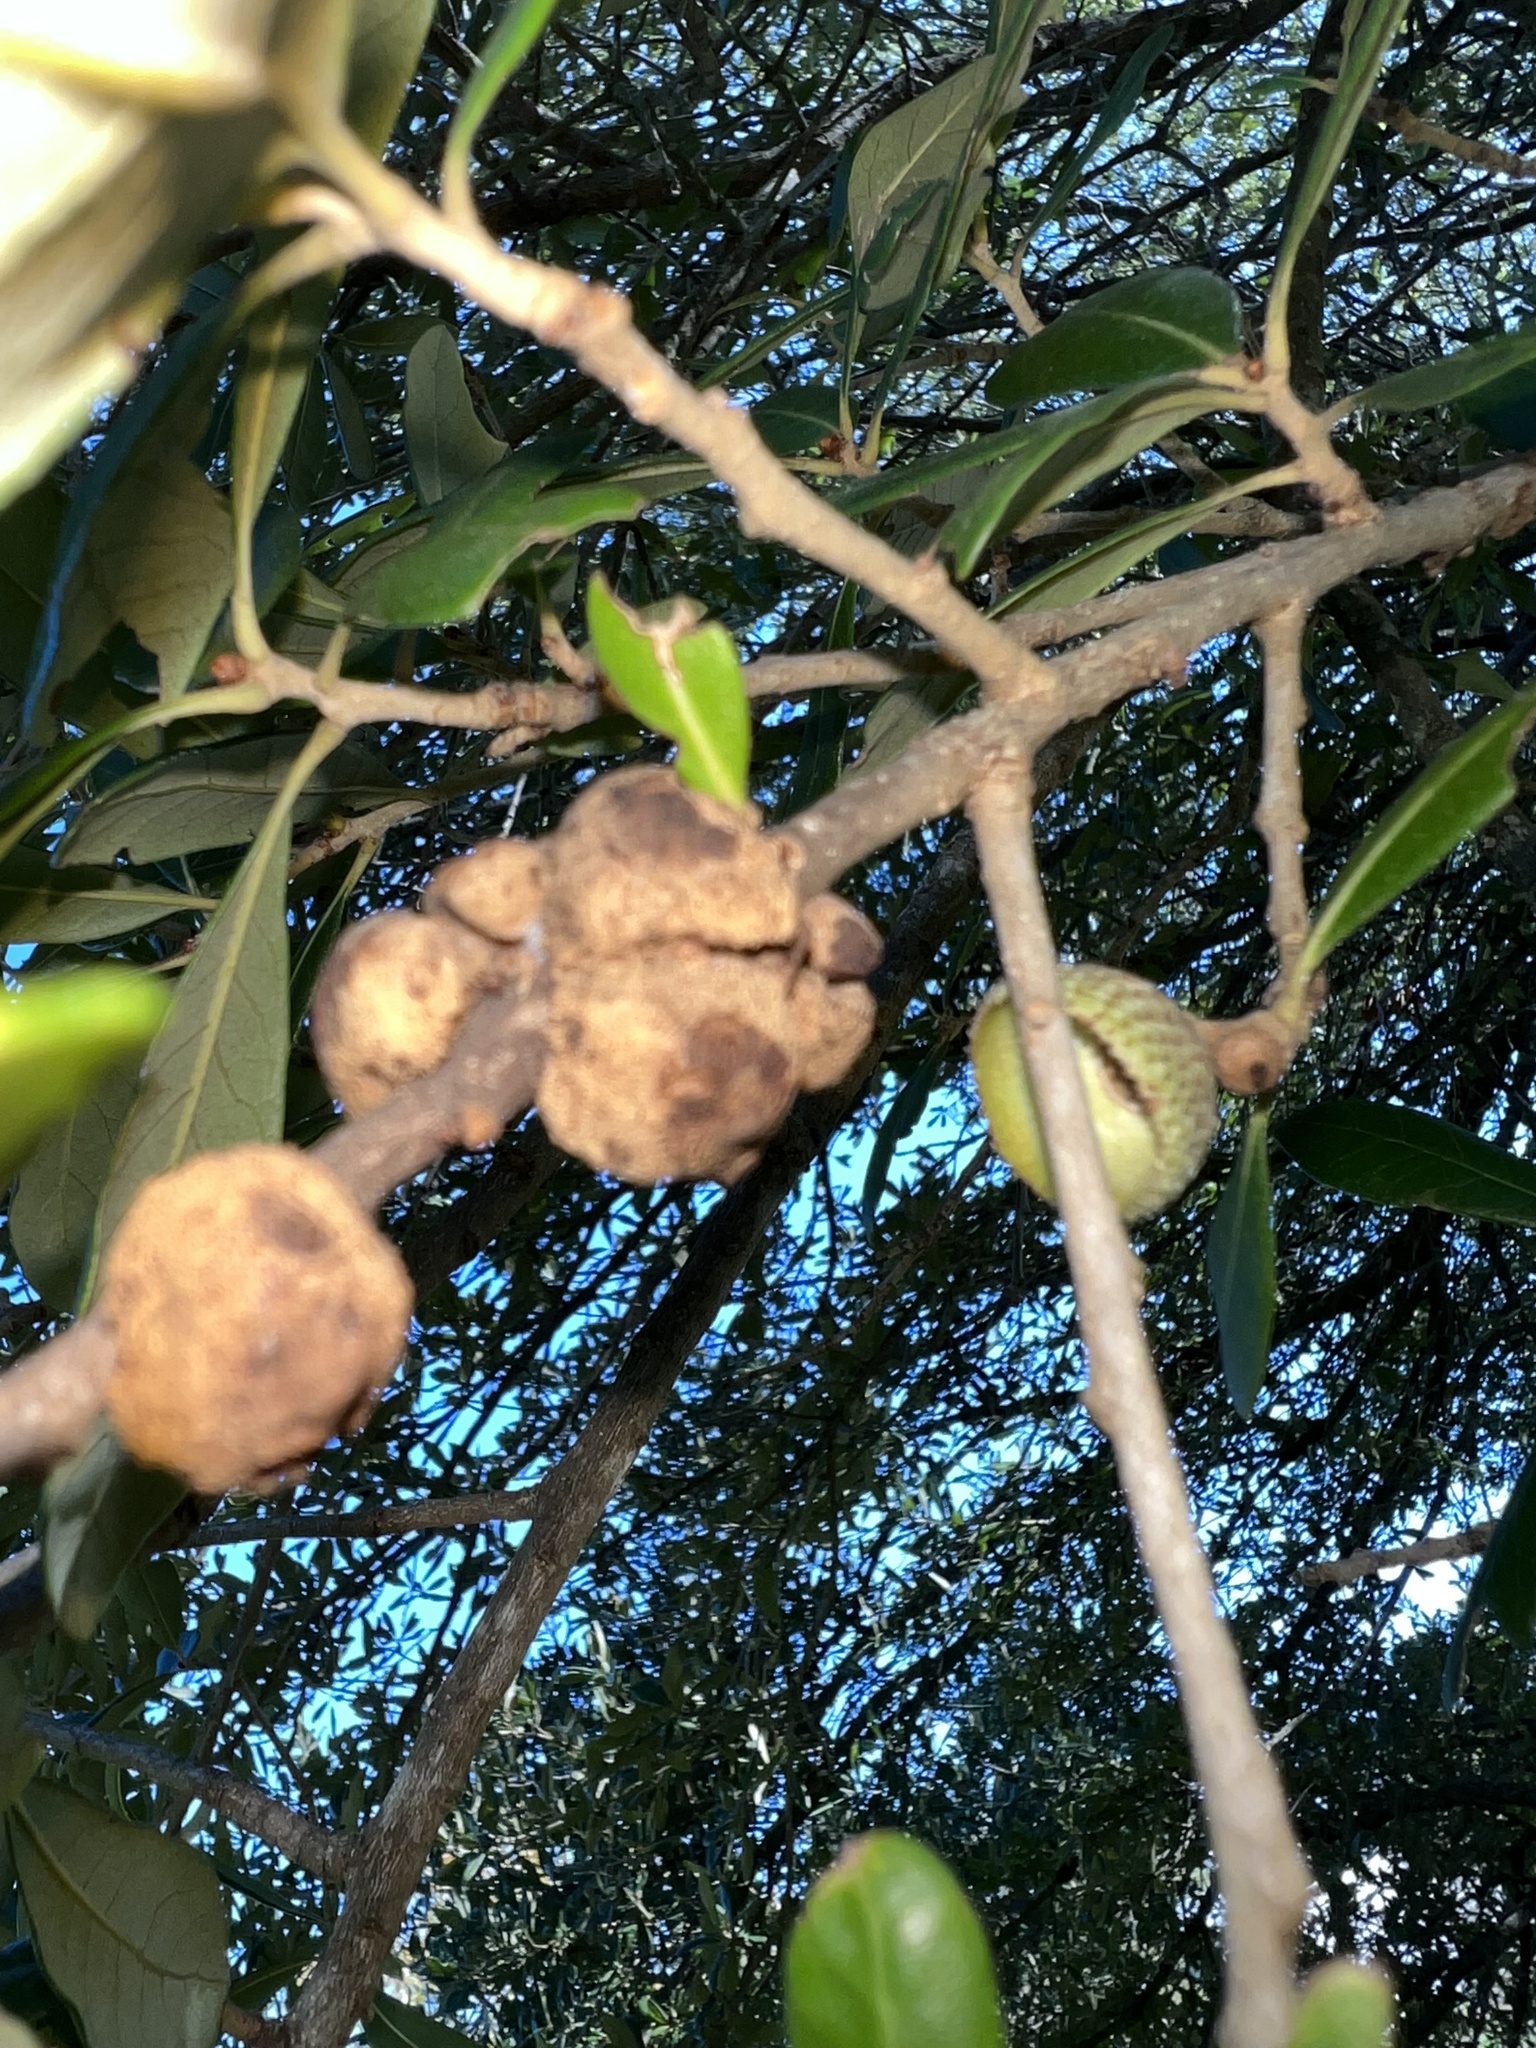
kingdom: Animalia
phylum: Arthropoda
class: Insecta
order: Hymenoptera
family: Cynipidae
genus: Disholcaspis
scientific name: Disholcaspis
